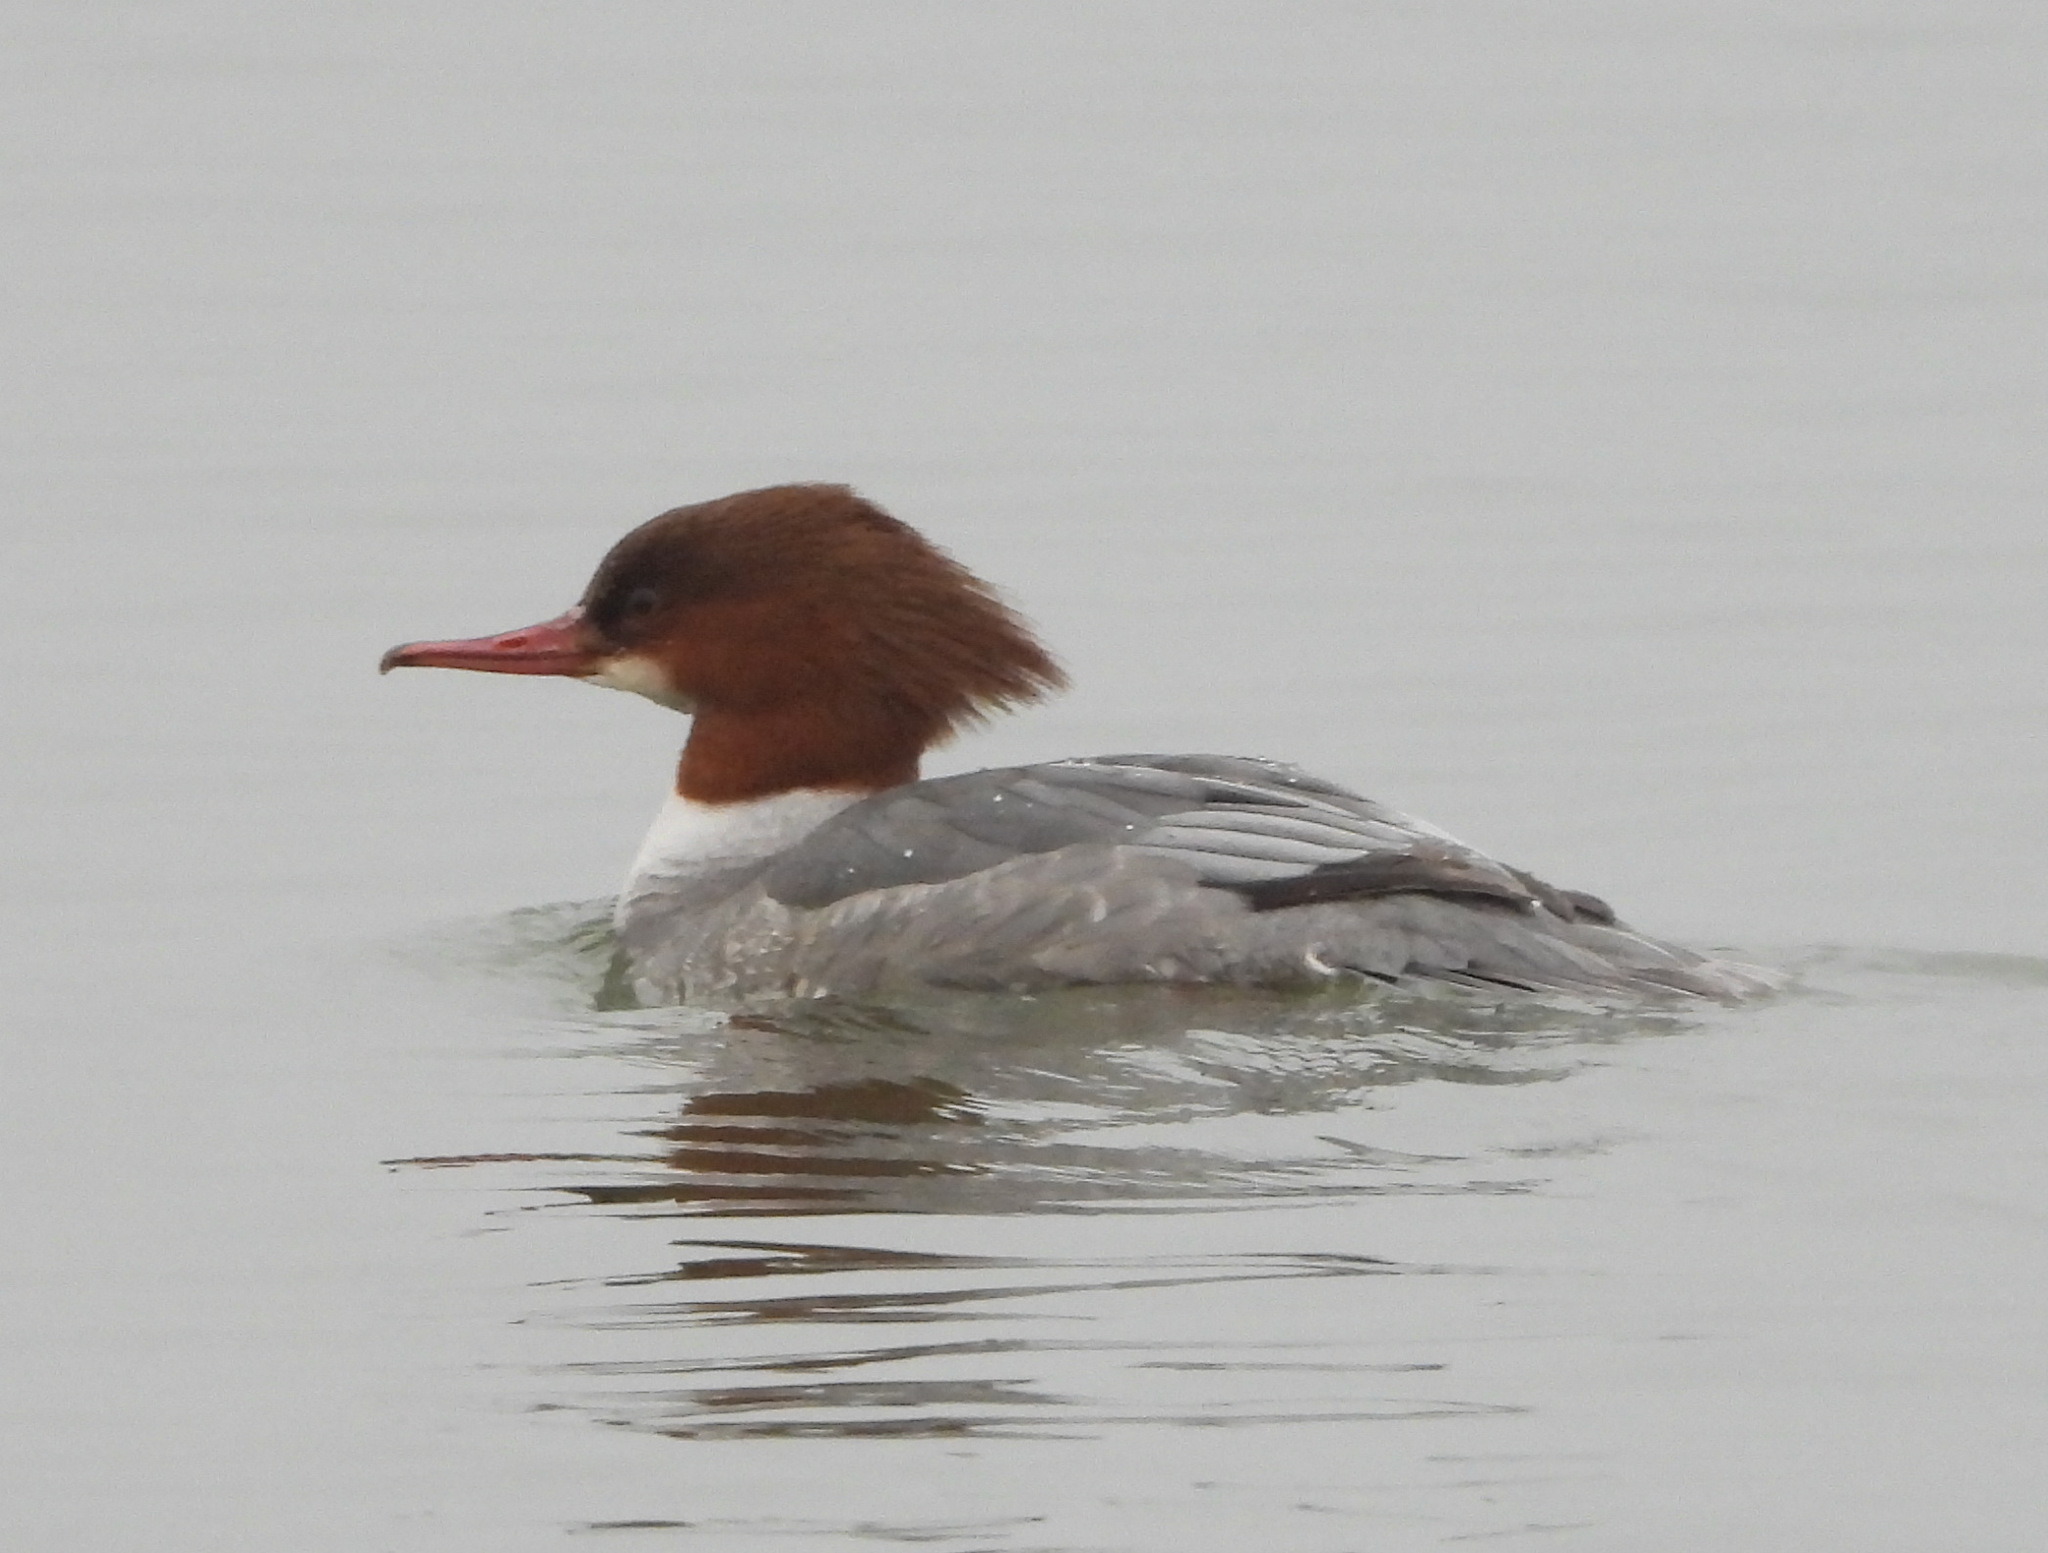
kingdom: Animalia
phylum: Chordata
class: Aves
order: Anseriformes
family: Anatidae
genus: Mergus
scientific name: Mergus merganser
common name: Common merganser
